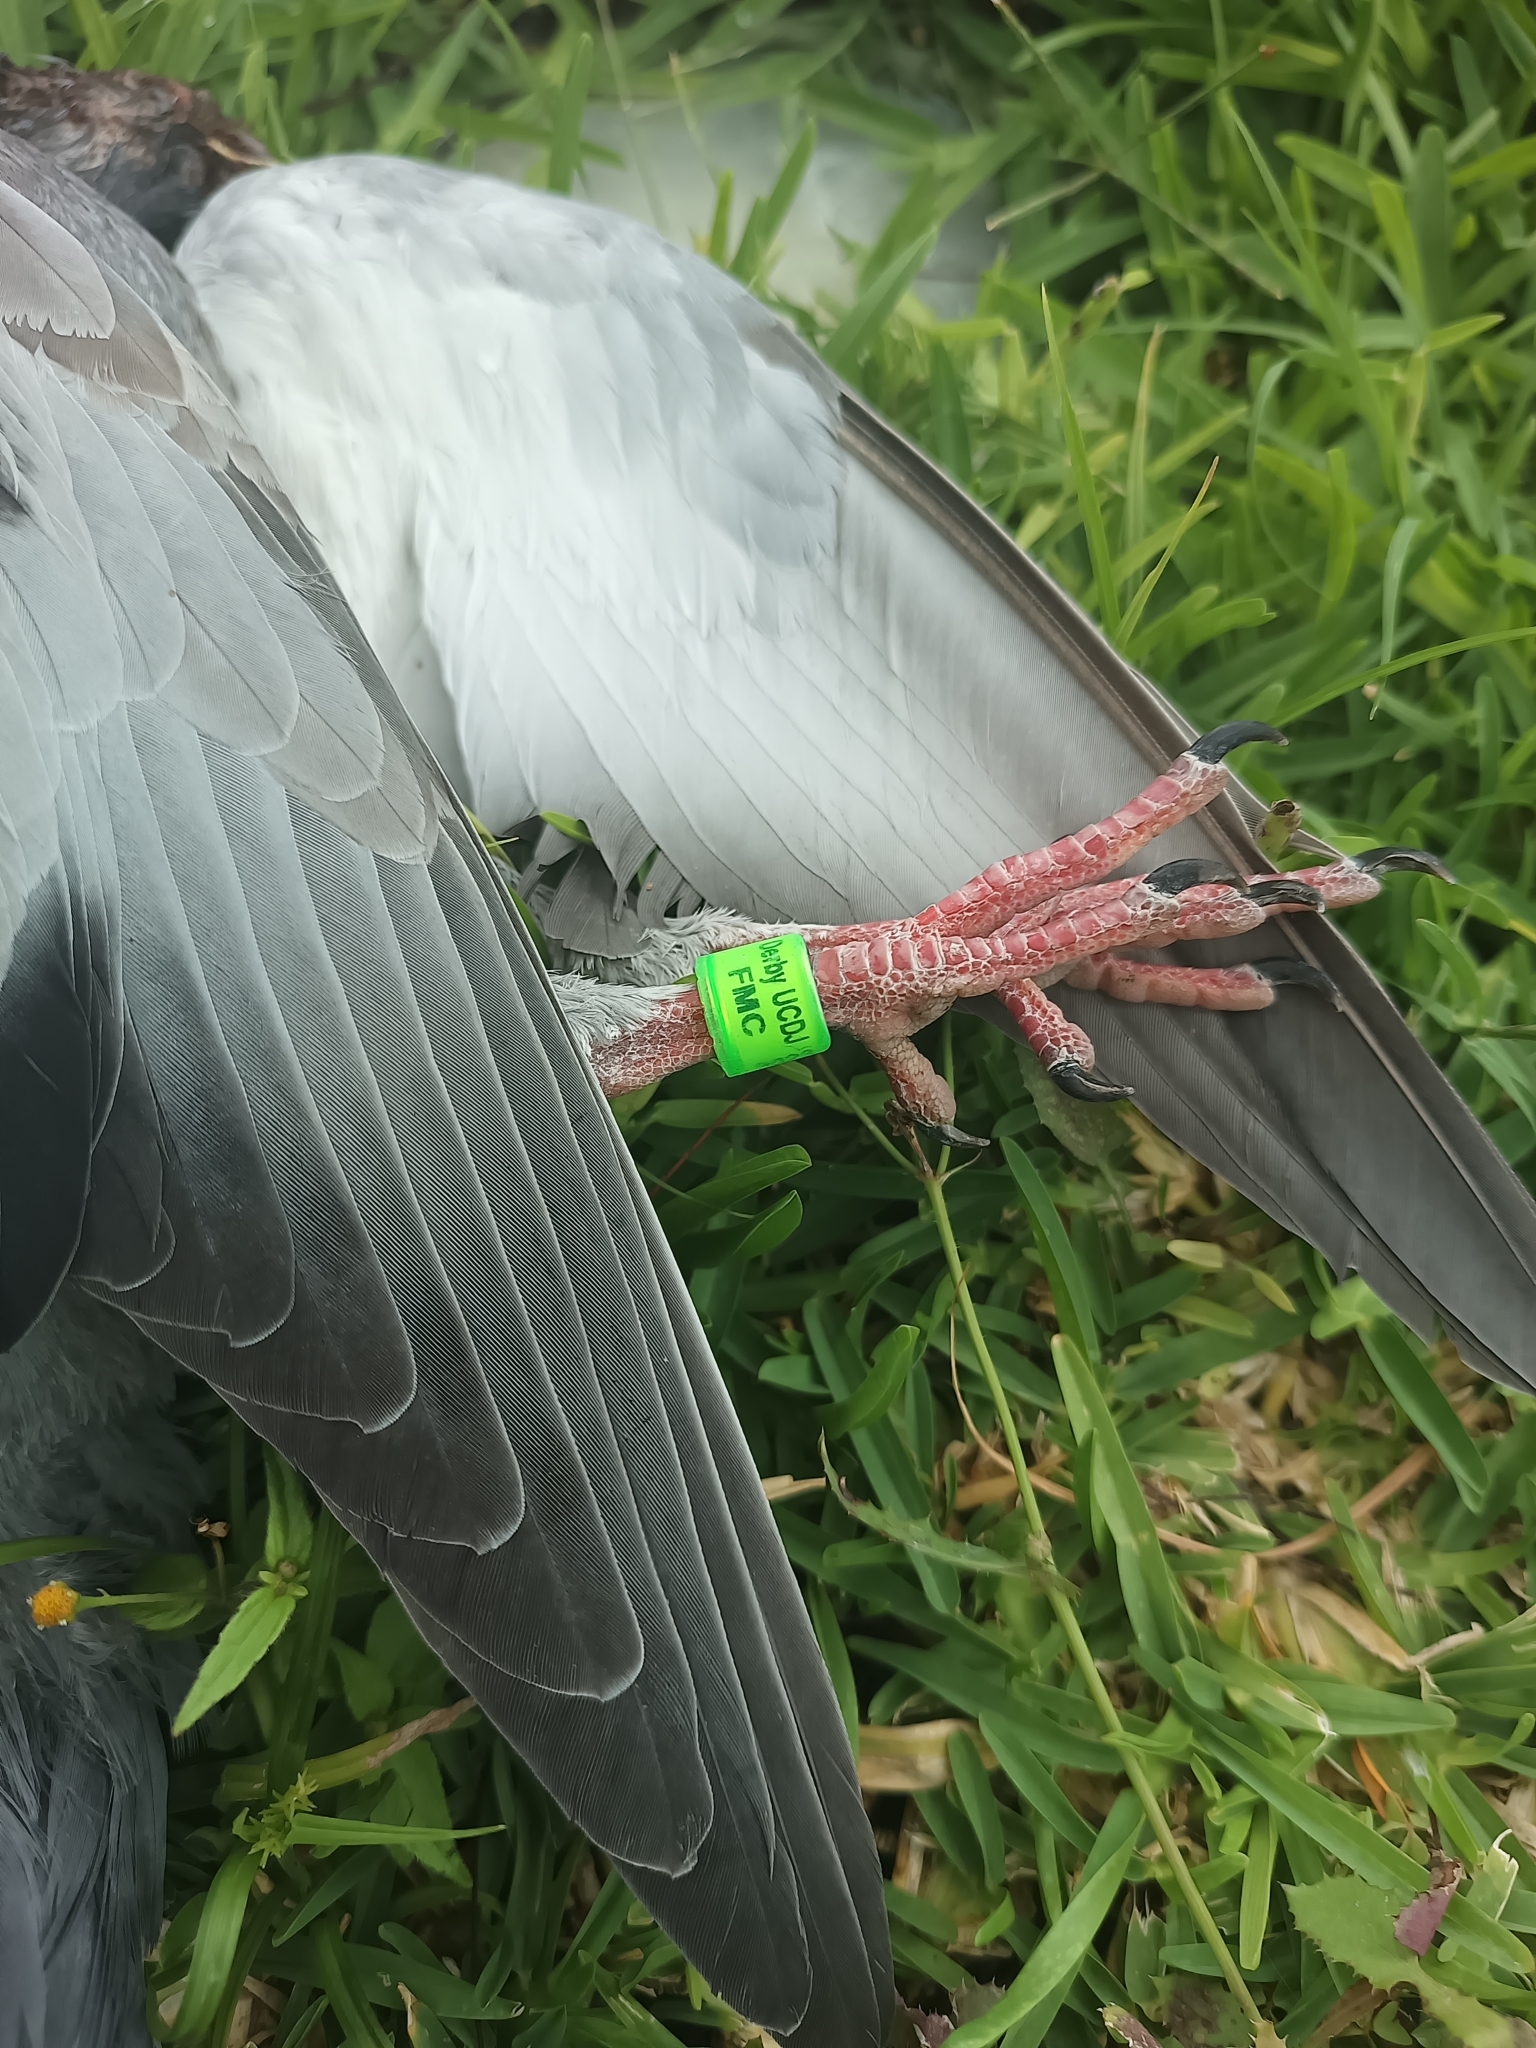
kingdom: Animalia
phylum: Chordata
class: Aves
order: Columbiformes
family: Columbidae
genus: Columba
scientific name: Columba livia
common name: Rock pigeon
